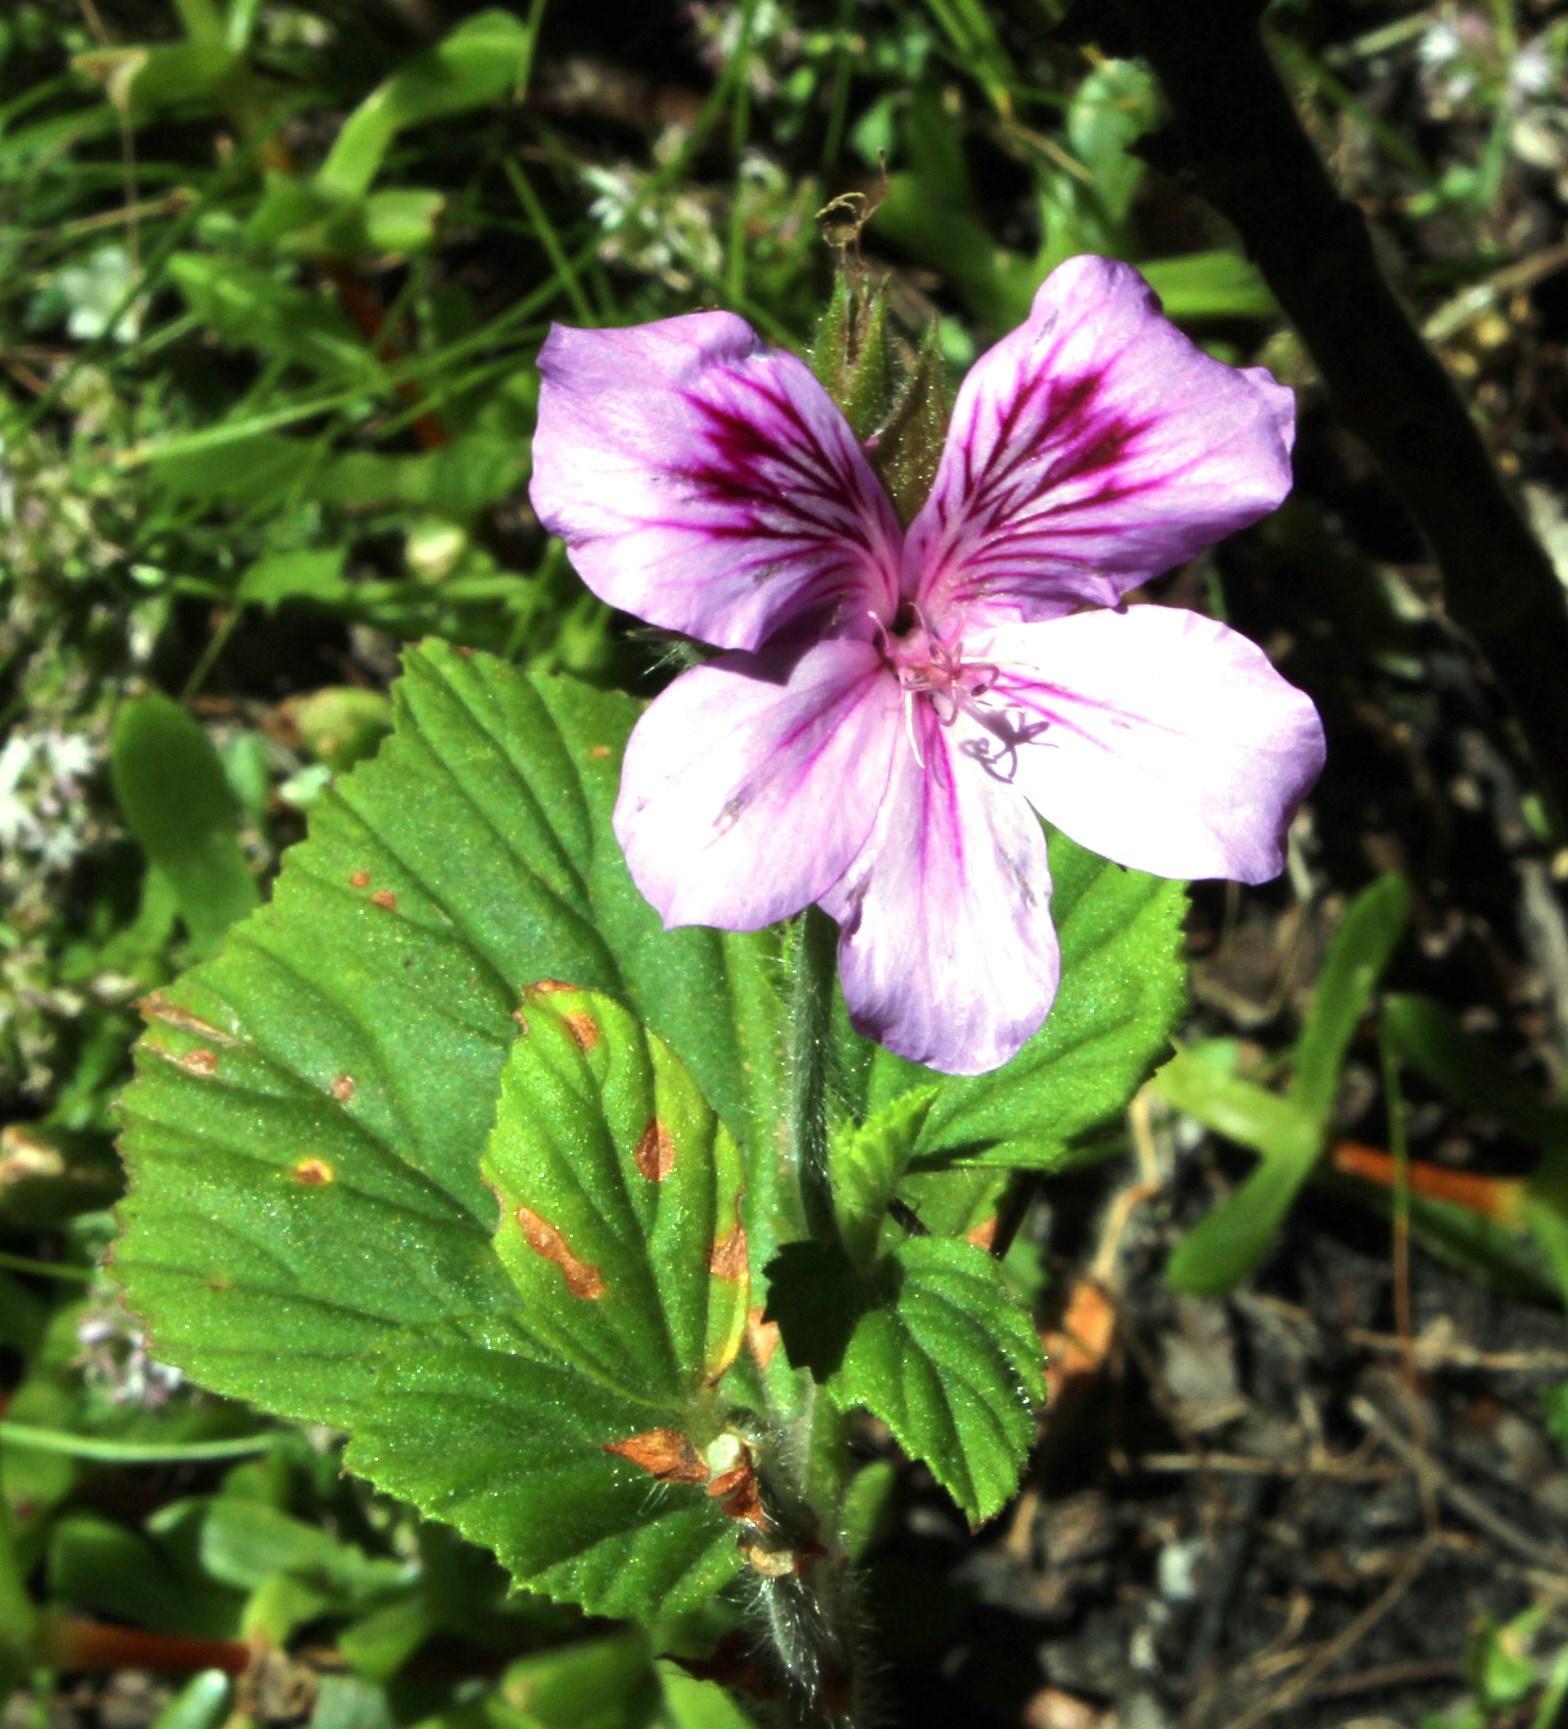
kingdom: Plantae
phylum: Tracheophyta
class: Magnoliopsida
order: Geraniales
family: Geraniaceae
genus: Pelargonium
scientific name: Pelargonium cucullatum
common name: Tree pelargonium
